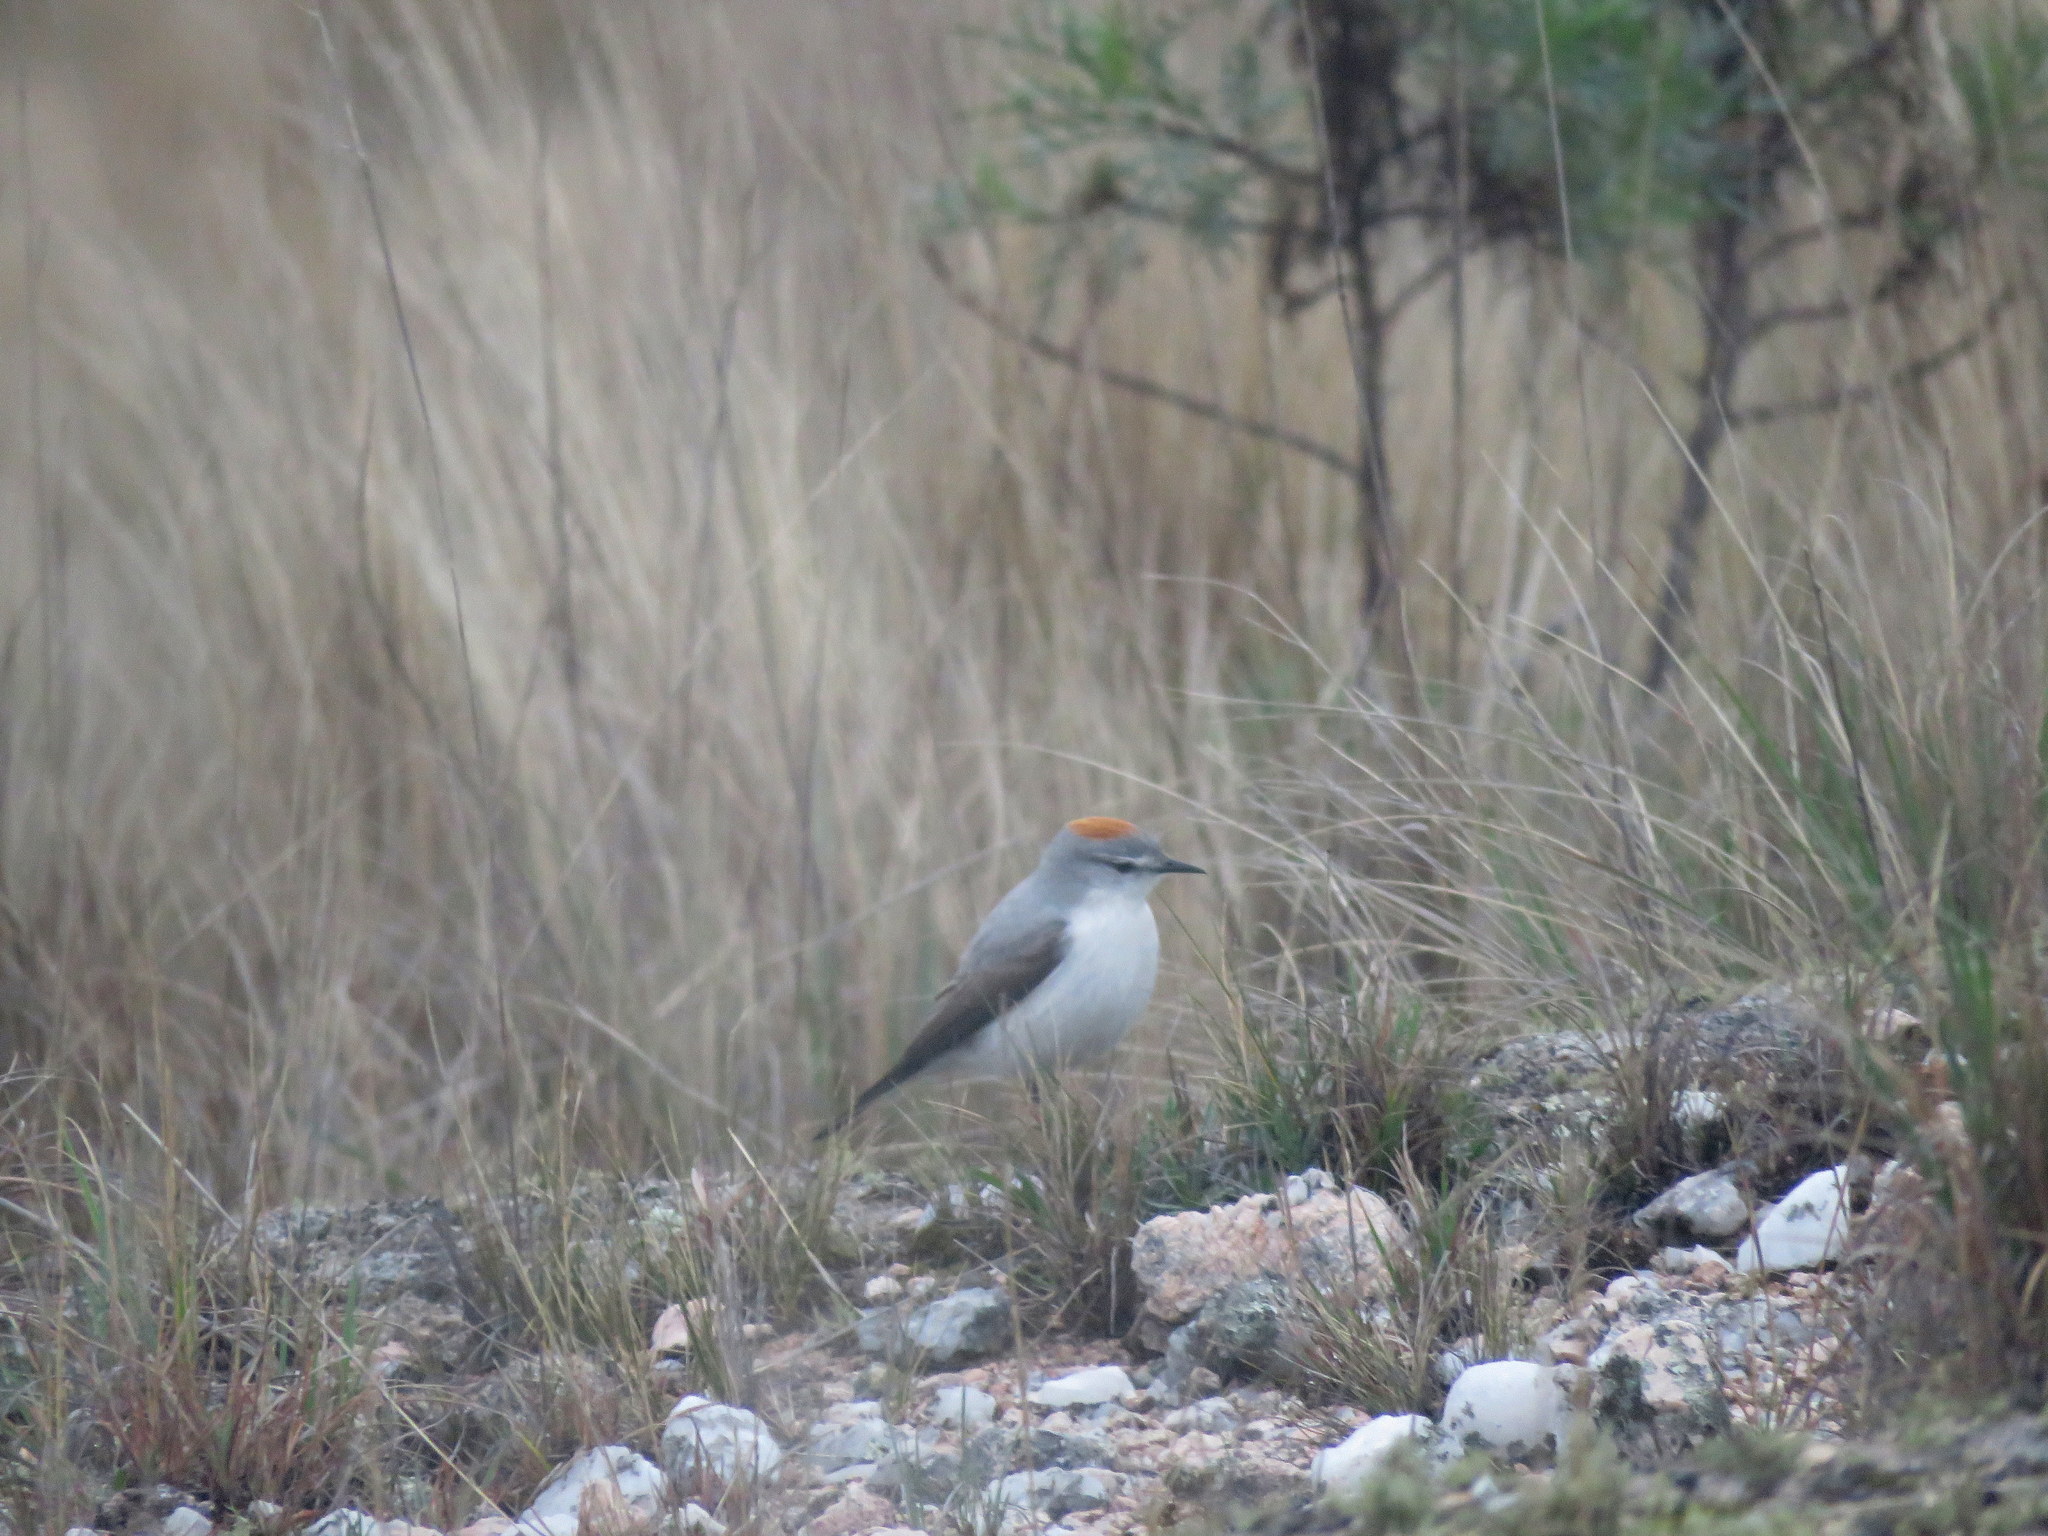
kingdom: Animalia
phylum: Chordata
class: Aves
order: Passeriformes
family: Tyrannidae
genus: Muscisaxicola
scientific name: Muscisaxicola rufivertex
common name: Rufous-naped ground tyrant
